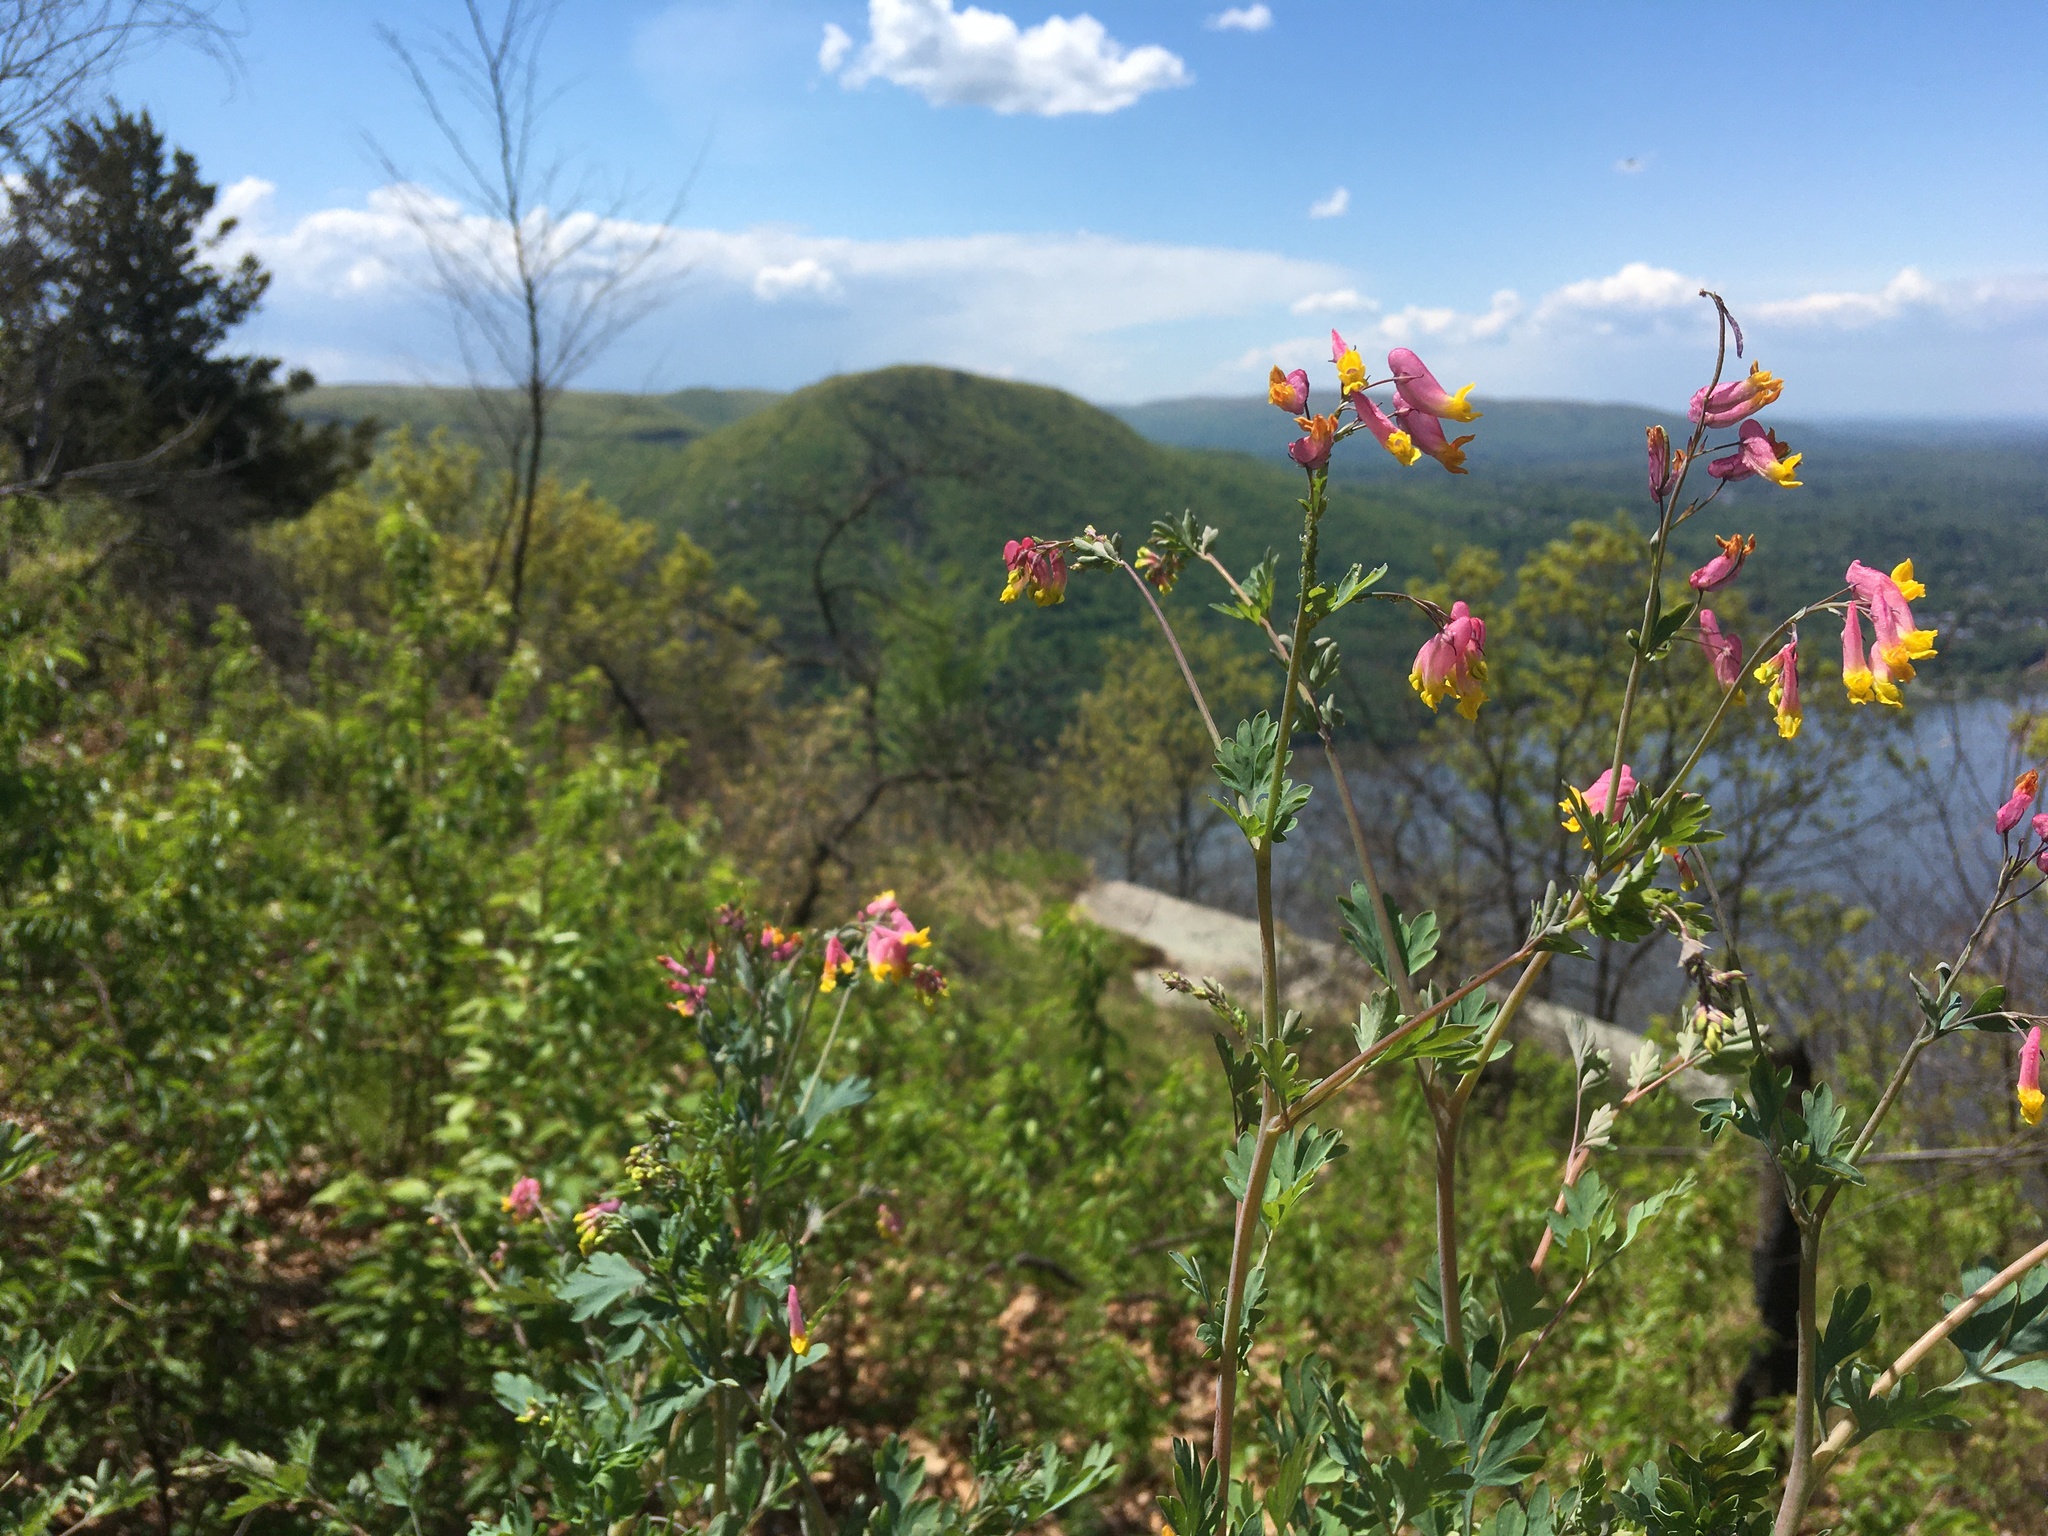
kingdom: Plantae
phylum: Tracheophyta
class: Magnoliopsida
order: Ranunculales
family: Papaveraceae
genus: Capnoides
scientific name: Capnoides sempervirens
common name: Rock harlequin
